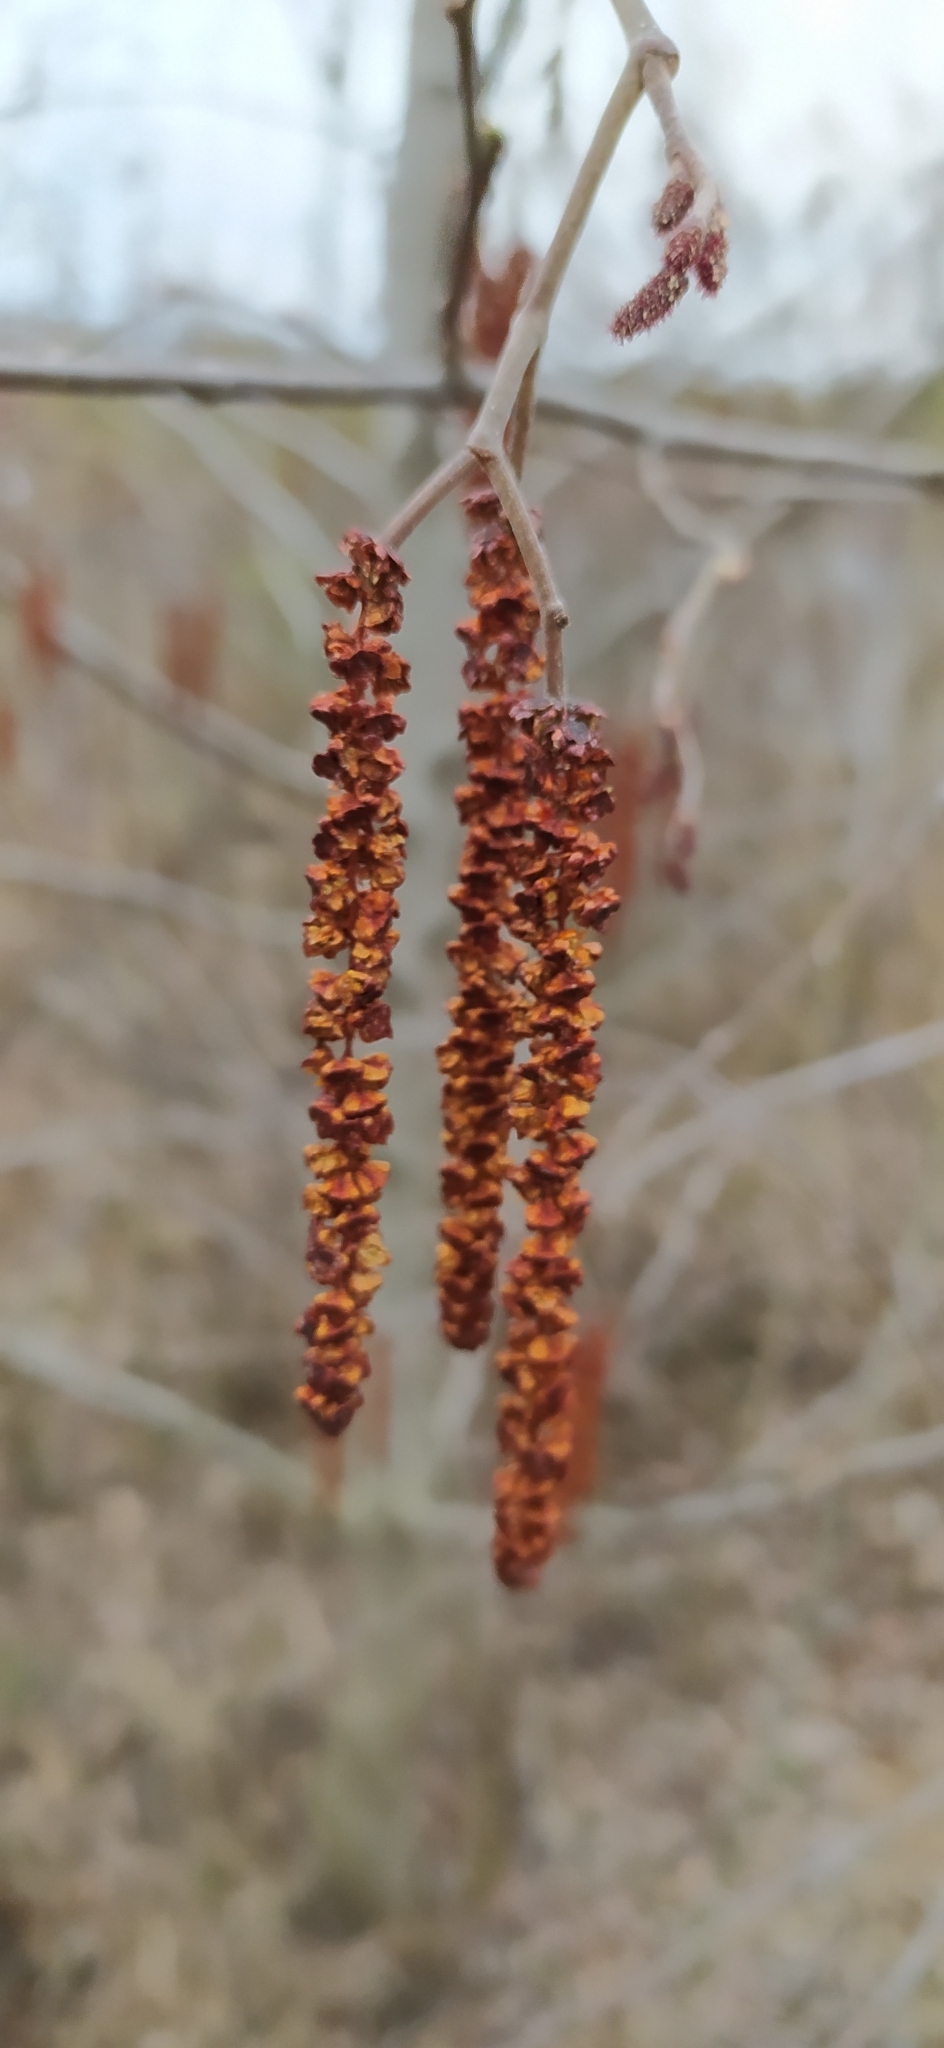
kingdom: Plantae
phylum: Tracheophyta
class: Magnoliopsida
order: Fagales
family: Betulaceae
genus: Alnus
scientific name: Alnus incana
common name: Grey alder
